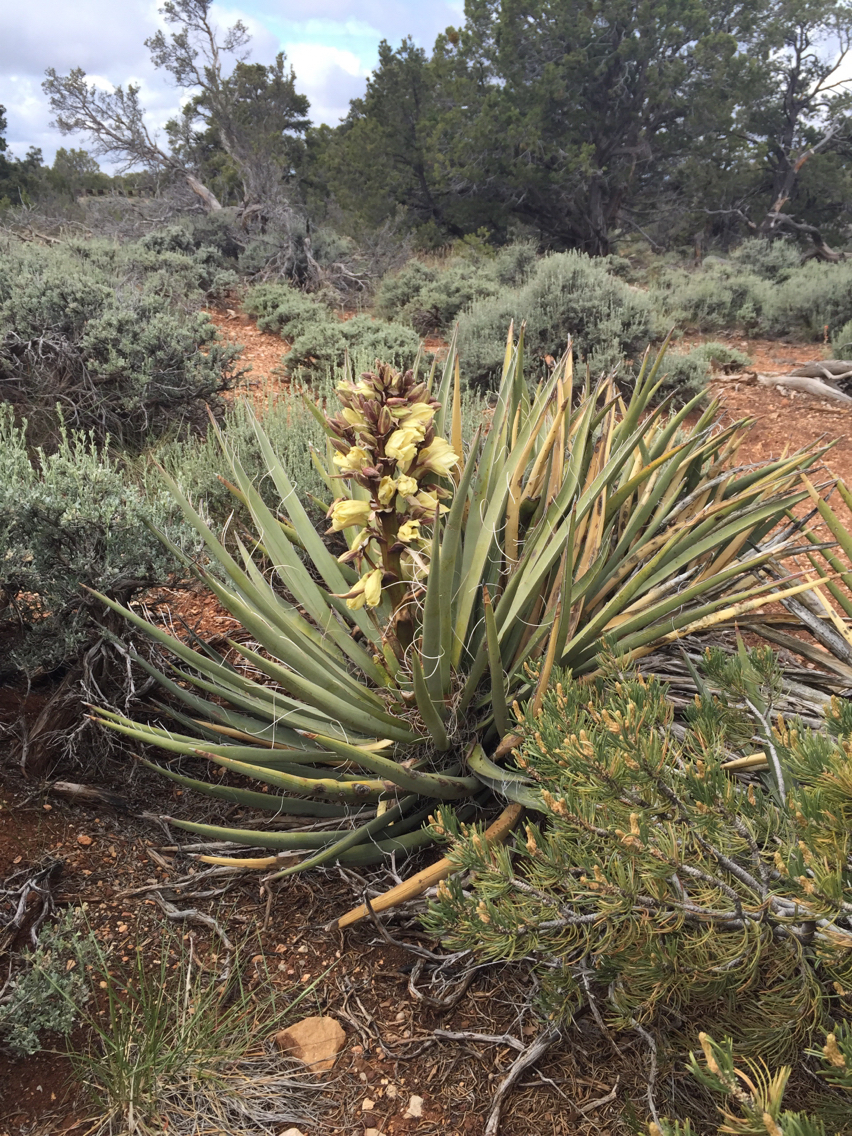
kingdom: Plantae
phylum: Tracheophyta
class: Liliopsida
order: Asparagales
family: Asparagaceae
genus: Yucca
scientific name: Yucca baccata
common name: Banana yucca
